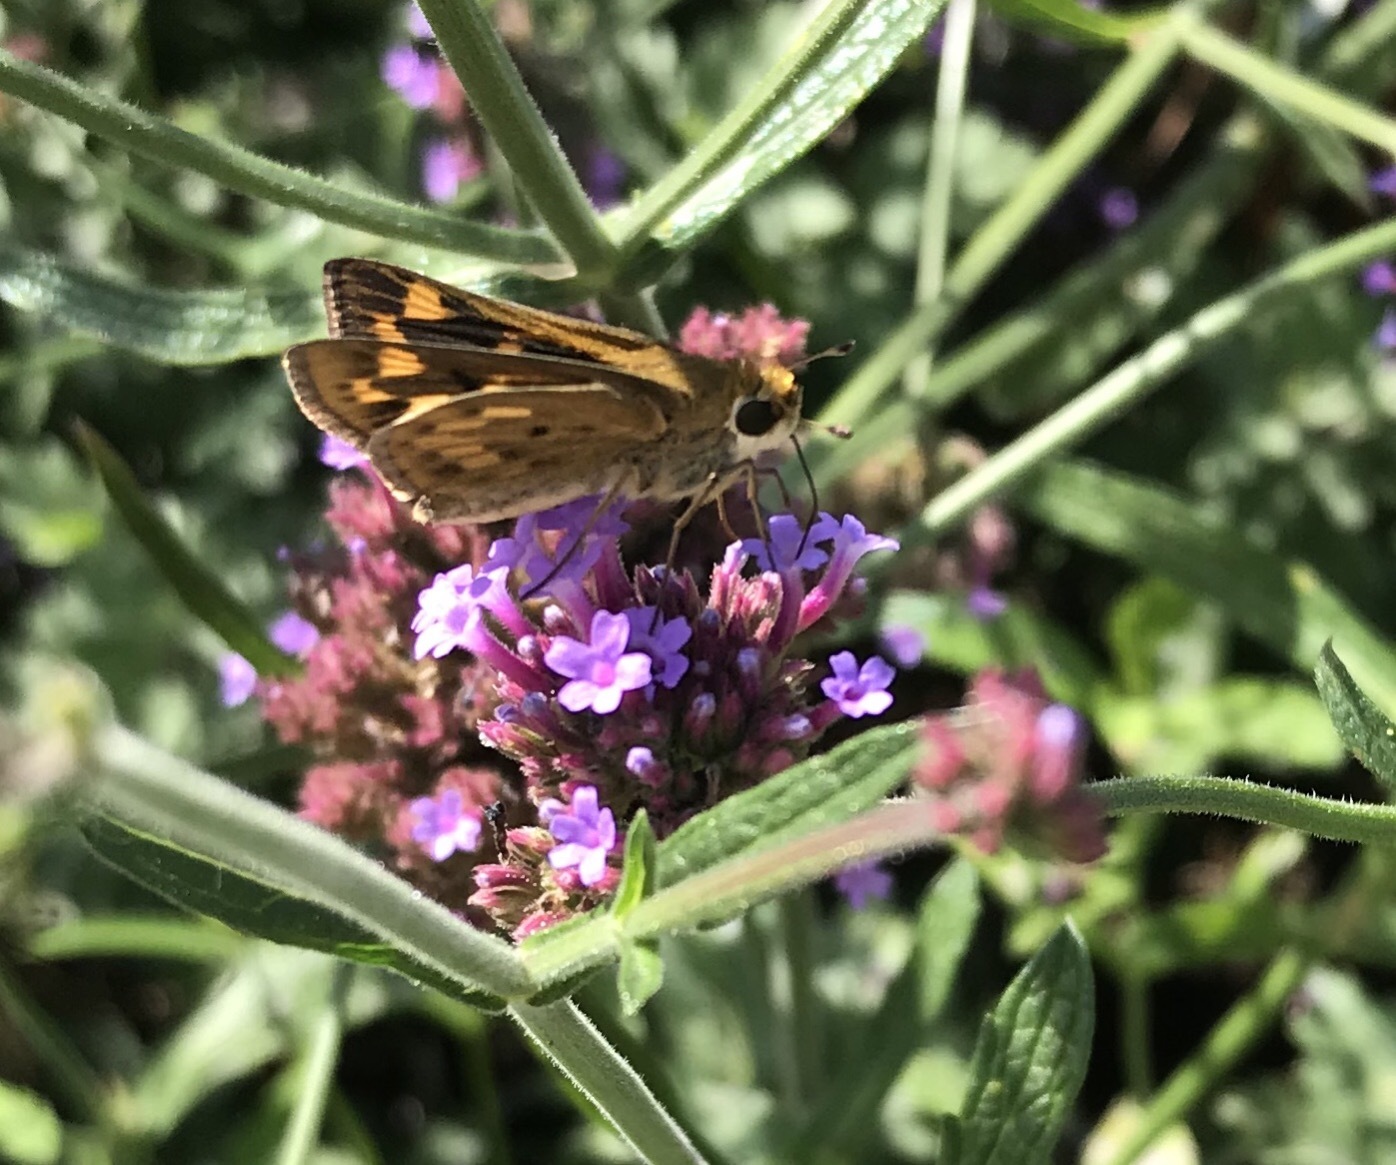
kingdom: Animalia
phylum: Arthropoda
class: Insecta
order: Lepidoptera
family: Hesperiidae
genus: Hylephila
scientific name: Hylephila phyleus
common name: Fiery skipper
